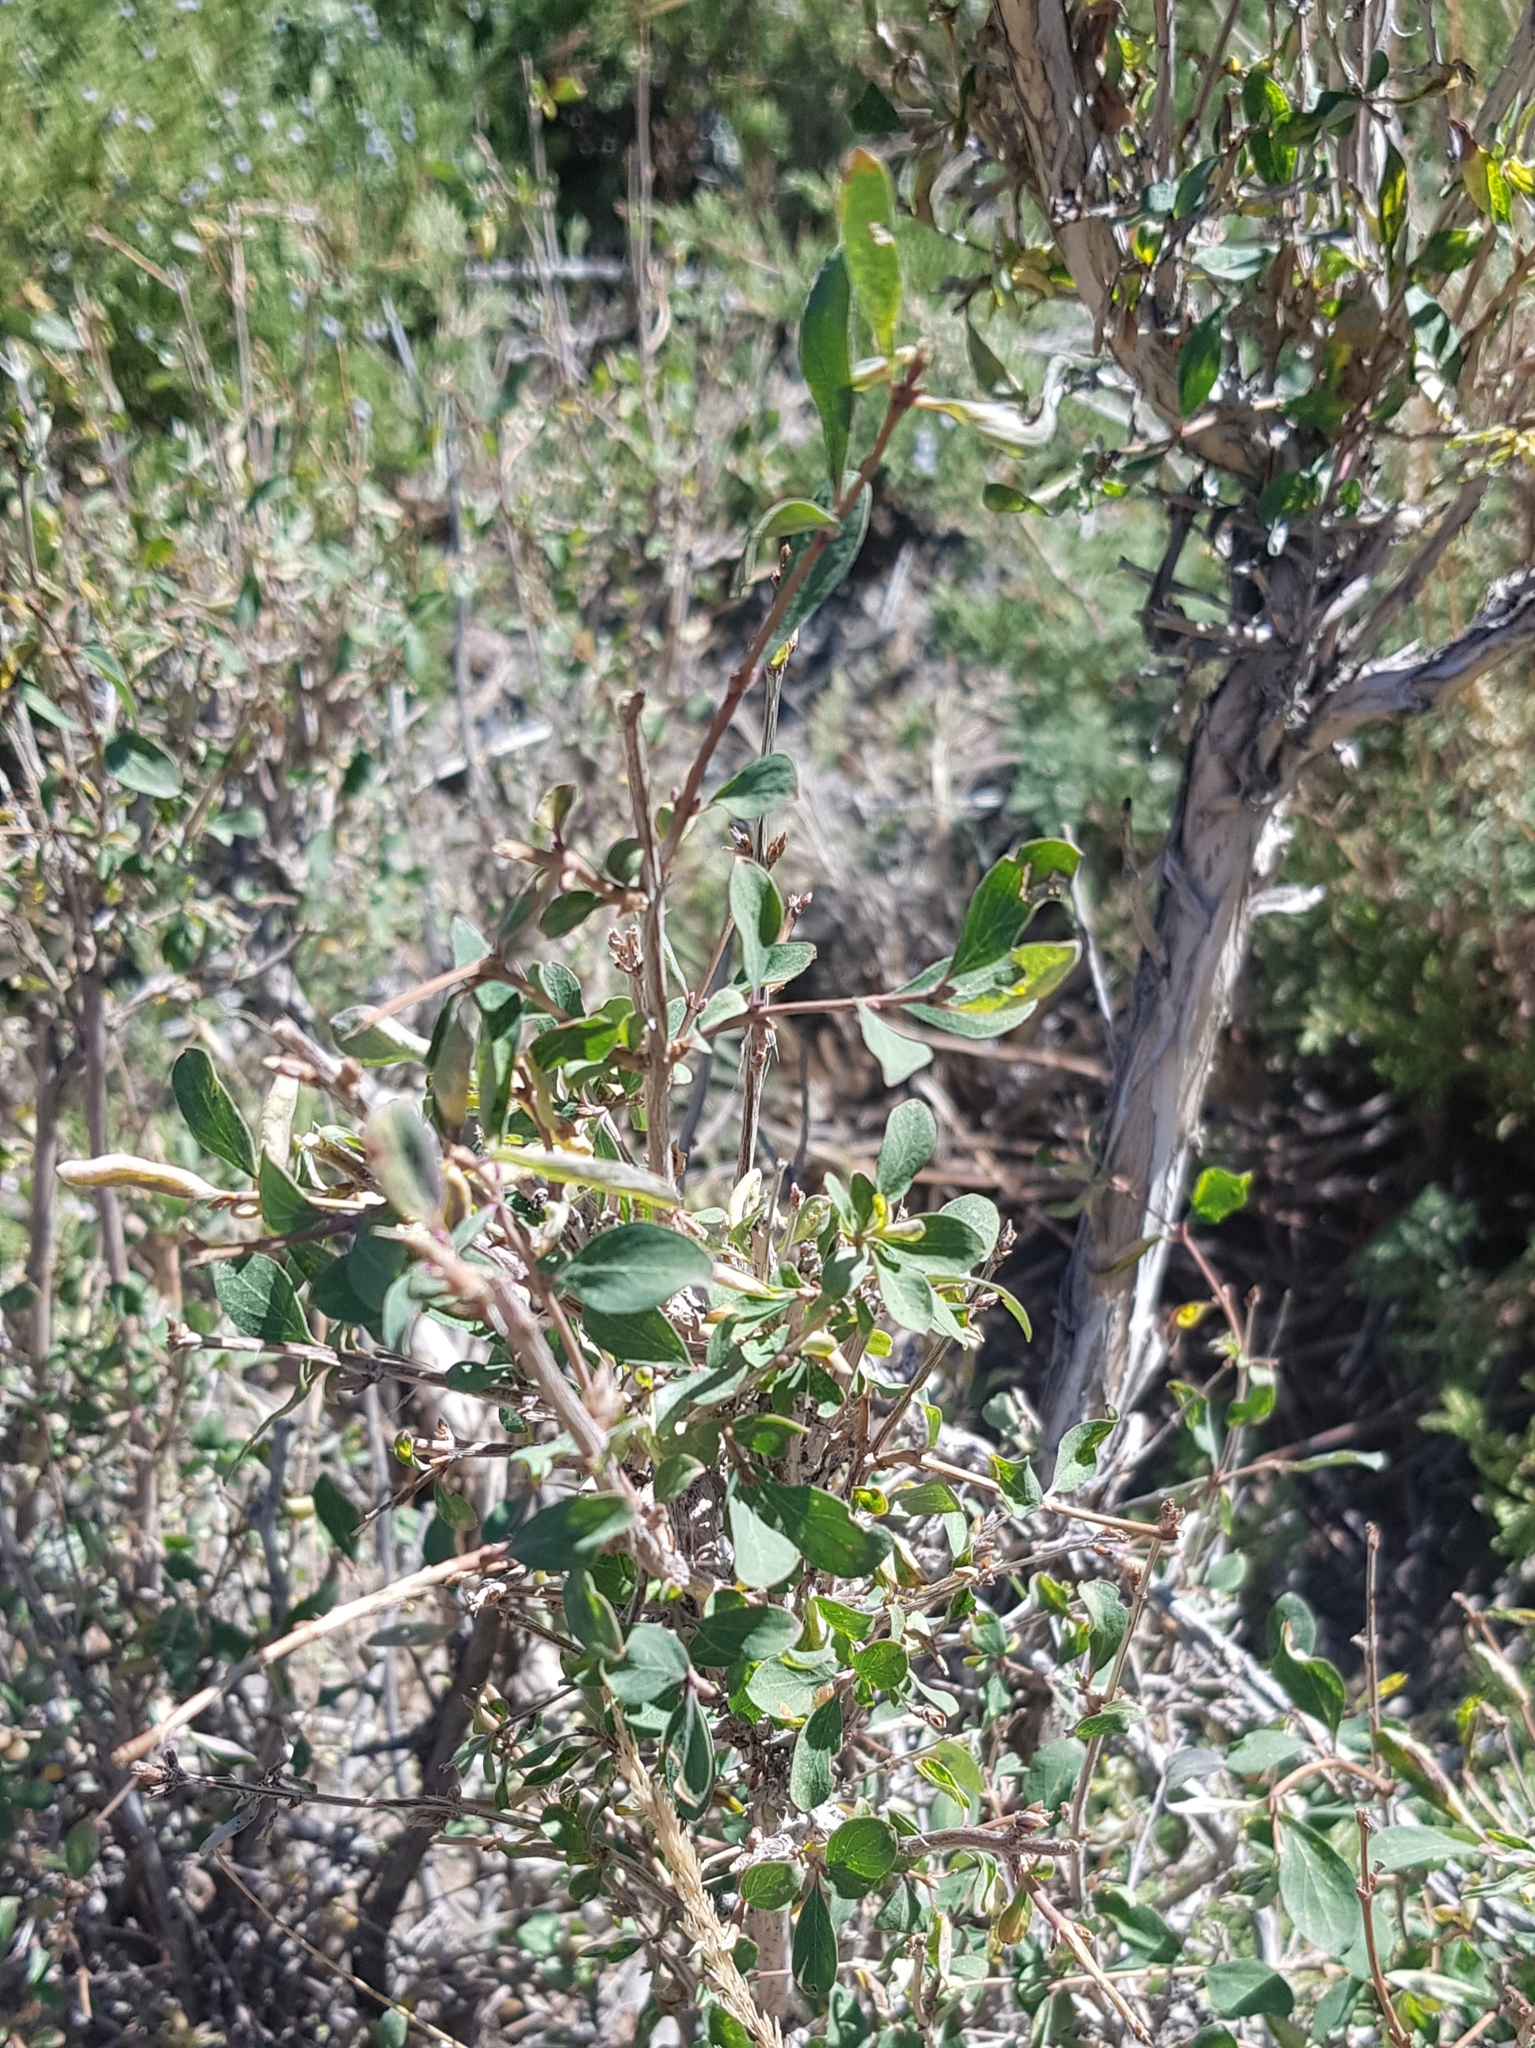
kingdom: Plantae
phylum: Tracheophyta
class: Magnoliopsida
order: Dipsacales
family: Caprifoliaceae
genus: Lonicera
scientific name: Lonicera microphylla
